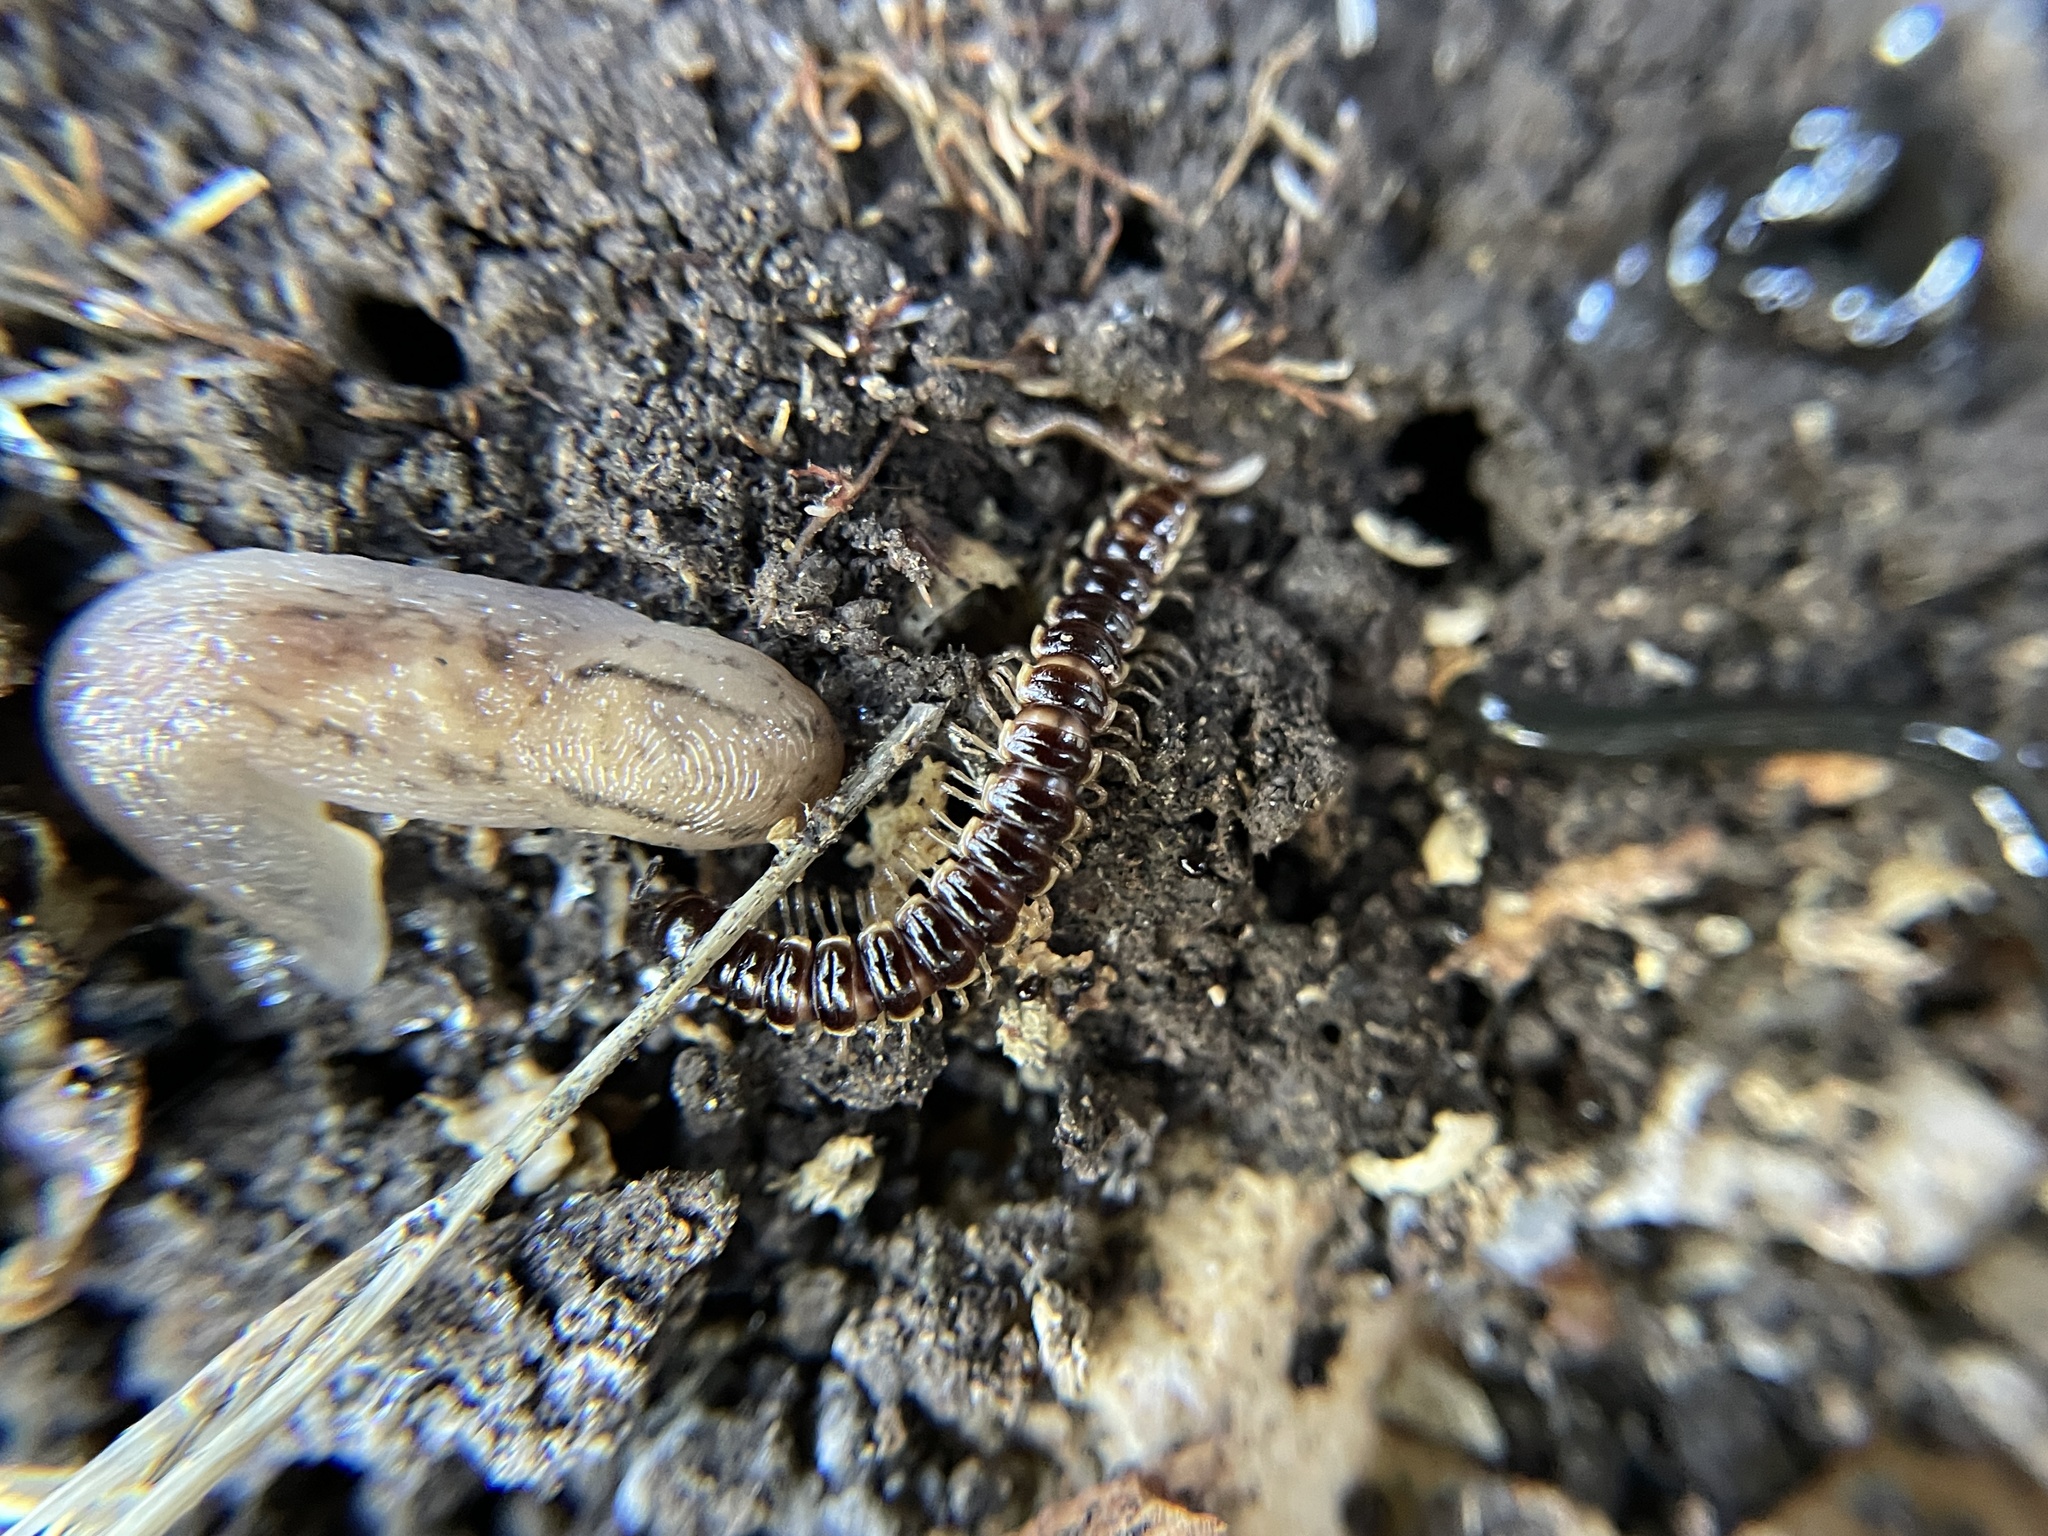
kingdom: Animalia
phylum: Arthropoda
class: Diplopoda
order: Polydesmida
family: Paradoxosomatidae
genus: Oxidus
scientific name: Oxidus gracilis
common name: Greenhouse millipede
